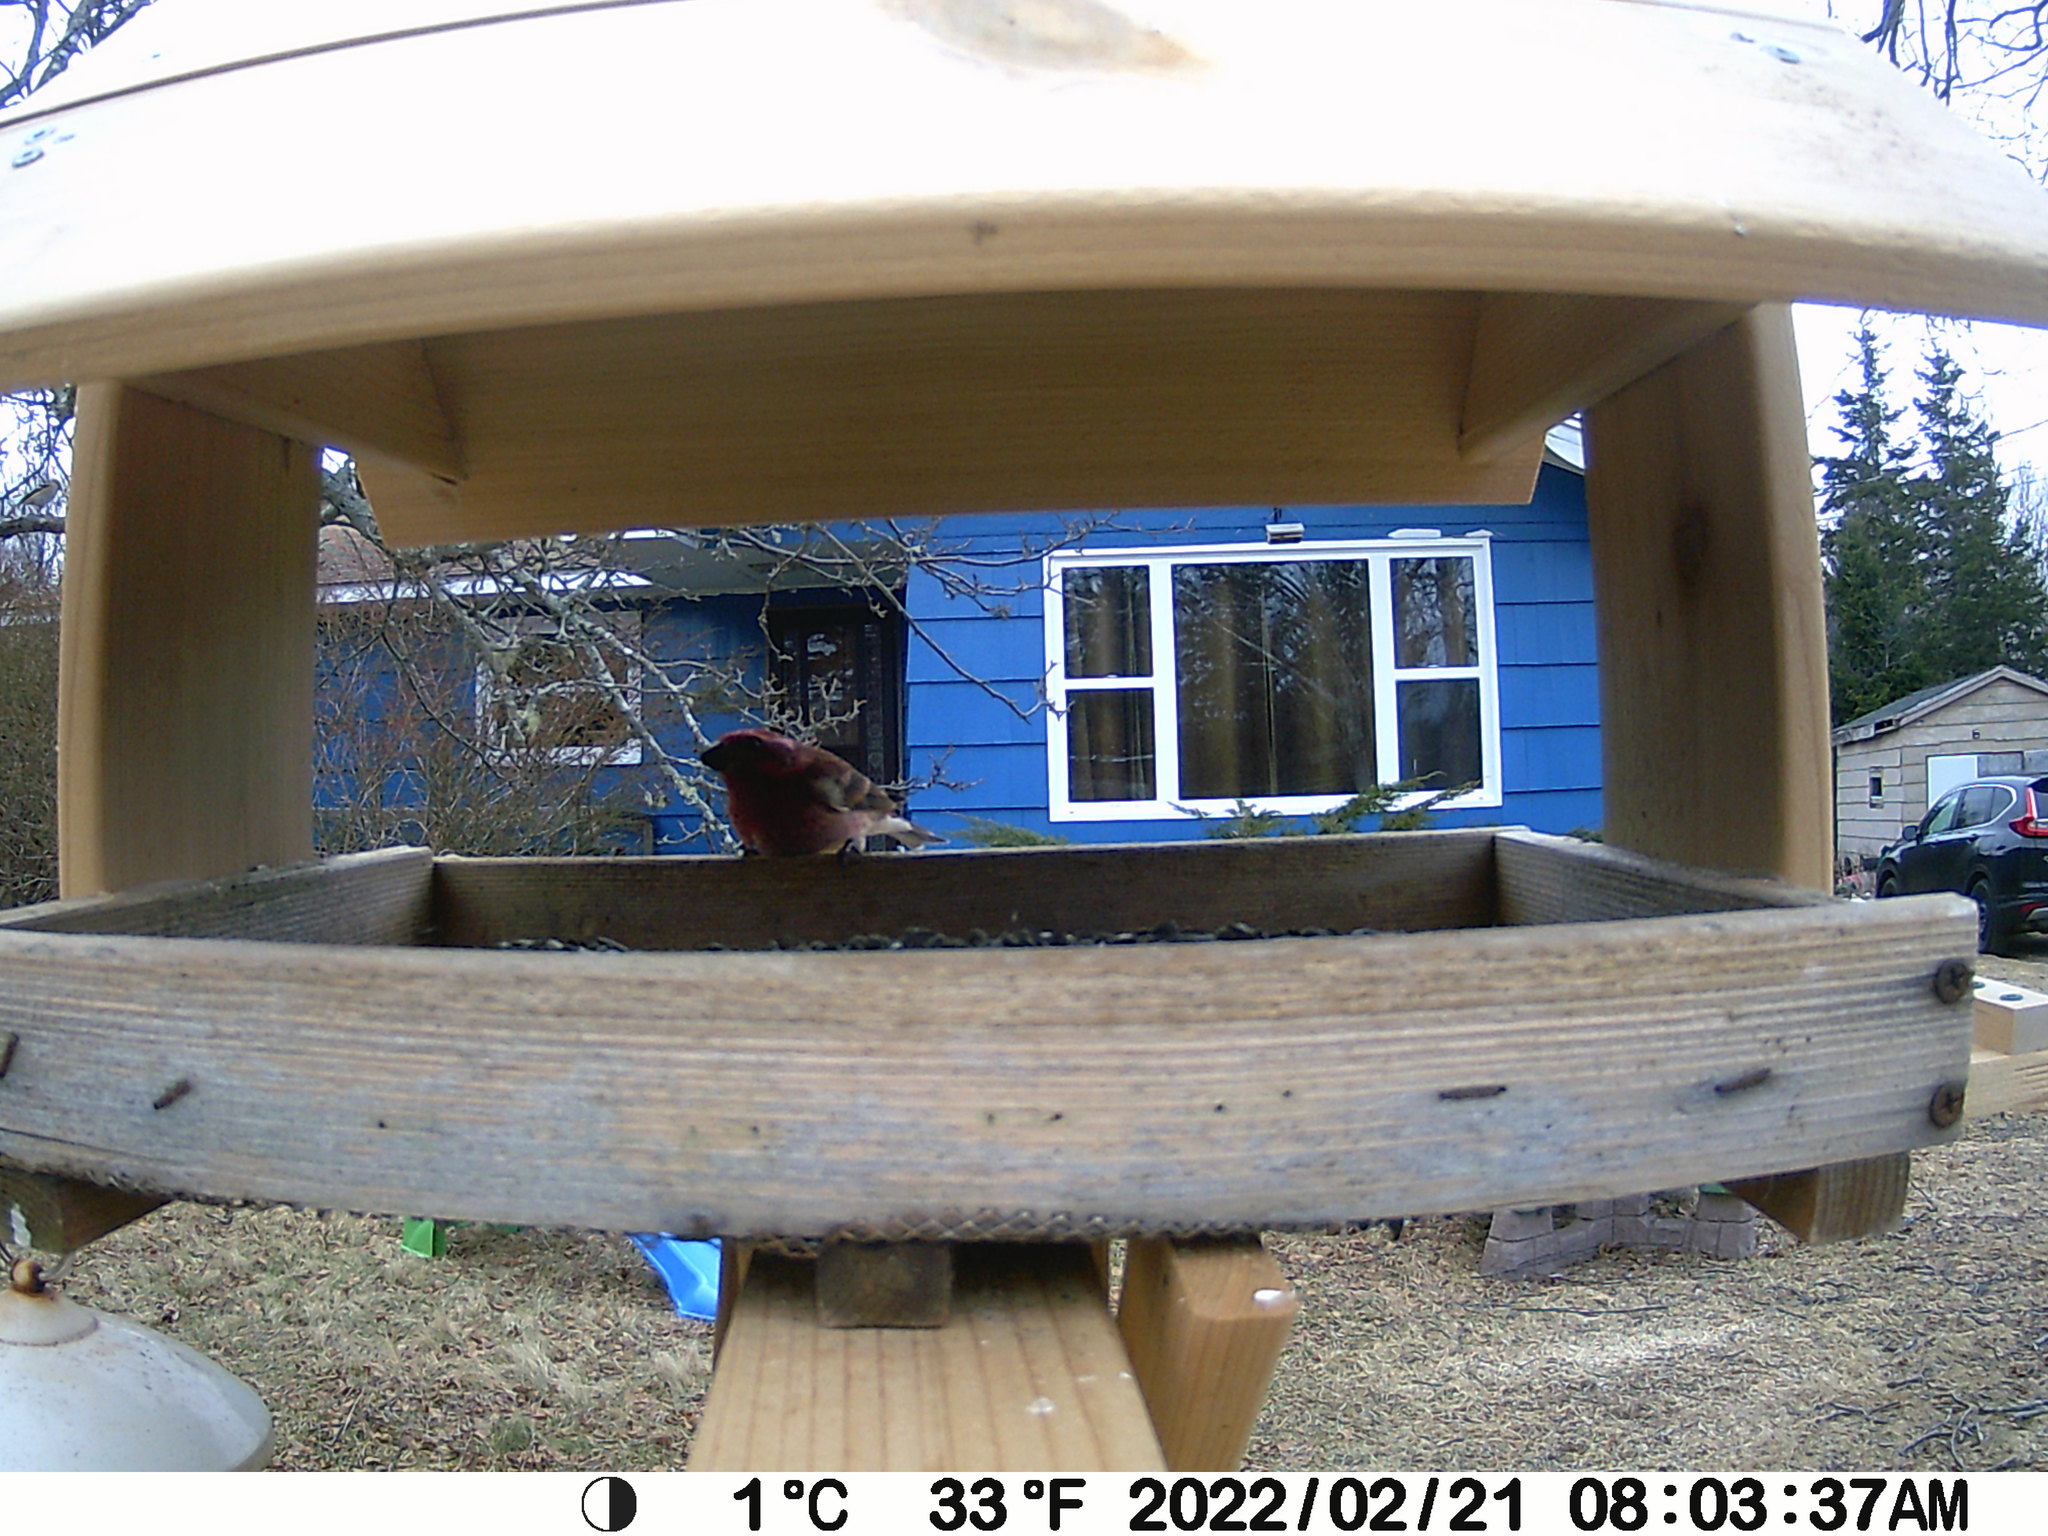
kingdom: Animalia
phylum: Chordata
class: Aves
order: Passeriformes
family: Fringillidae
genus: Haemorhous
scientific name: Haemorhous purpureus
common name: Purple finch
